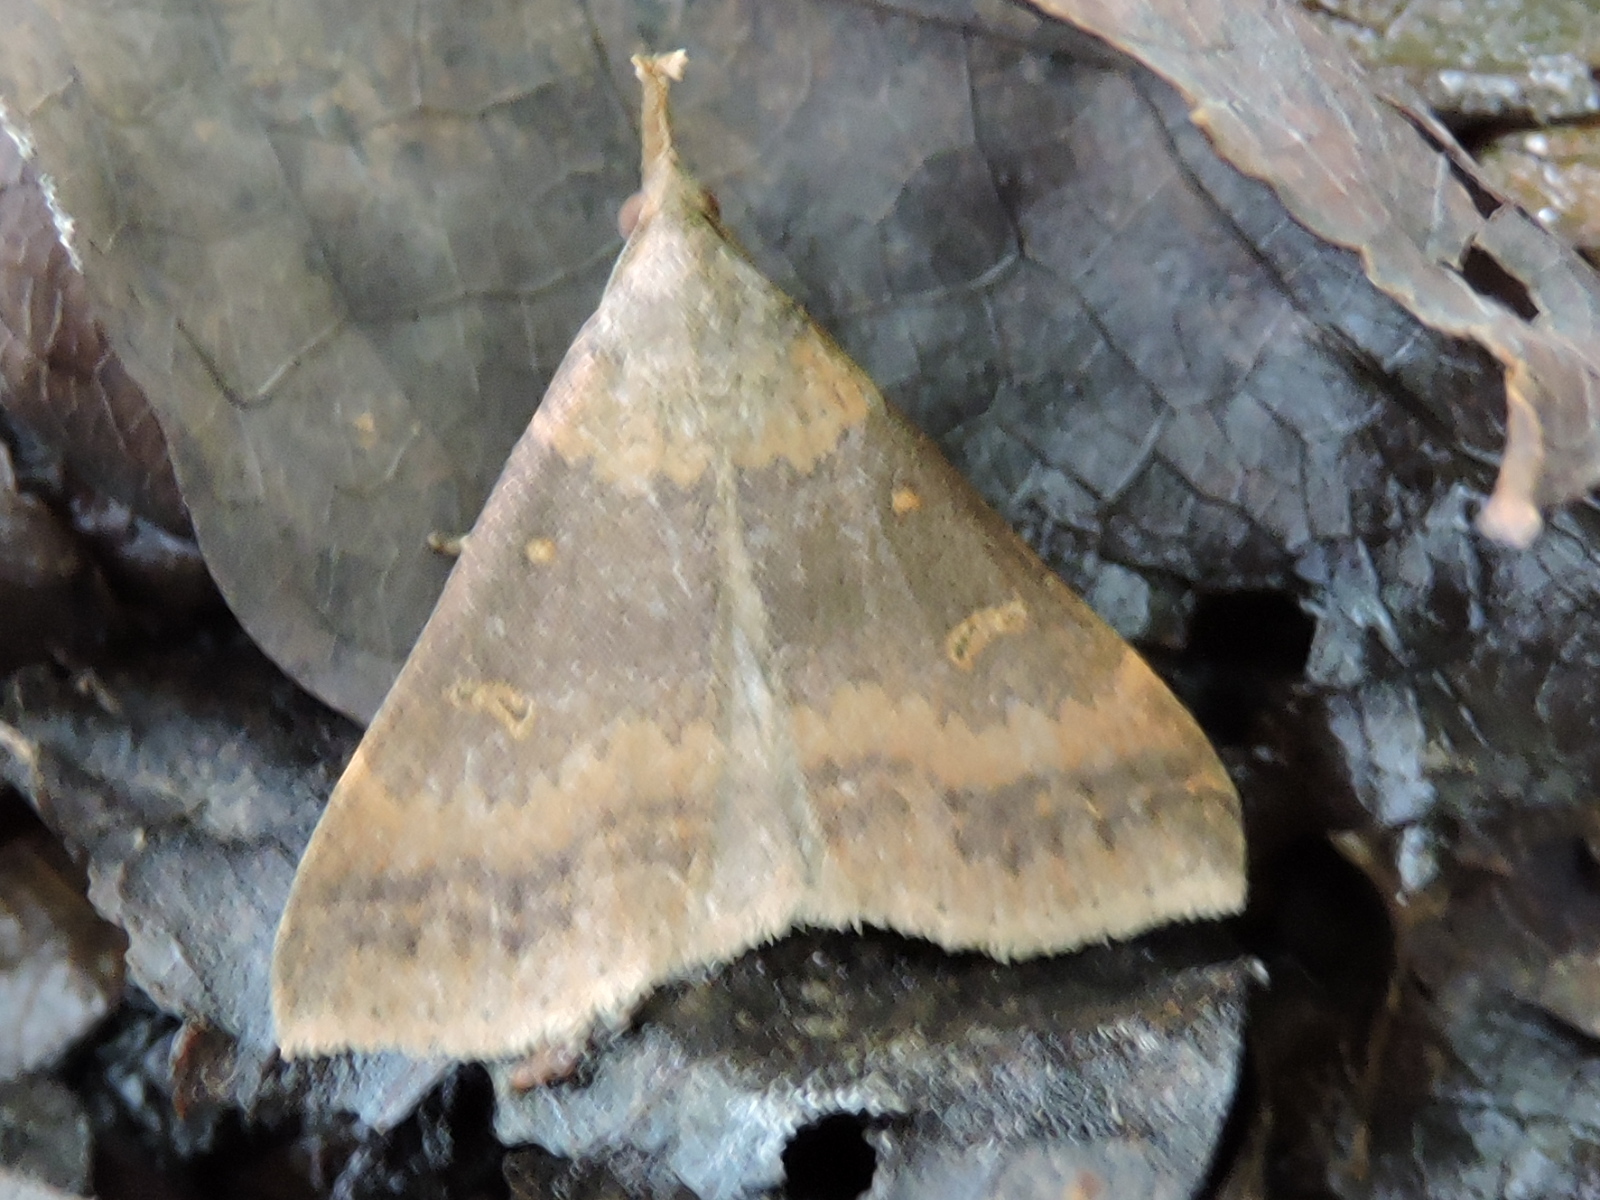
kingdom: Animalia
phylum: Arthropoda
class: Insecta
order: Lepidoptera
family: Erebidae
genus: Renia
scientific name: Renia
